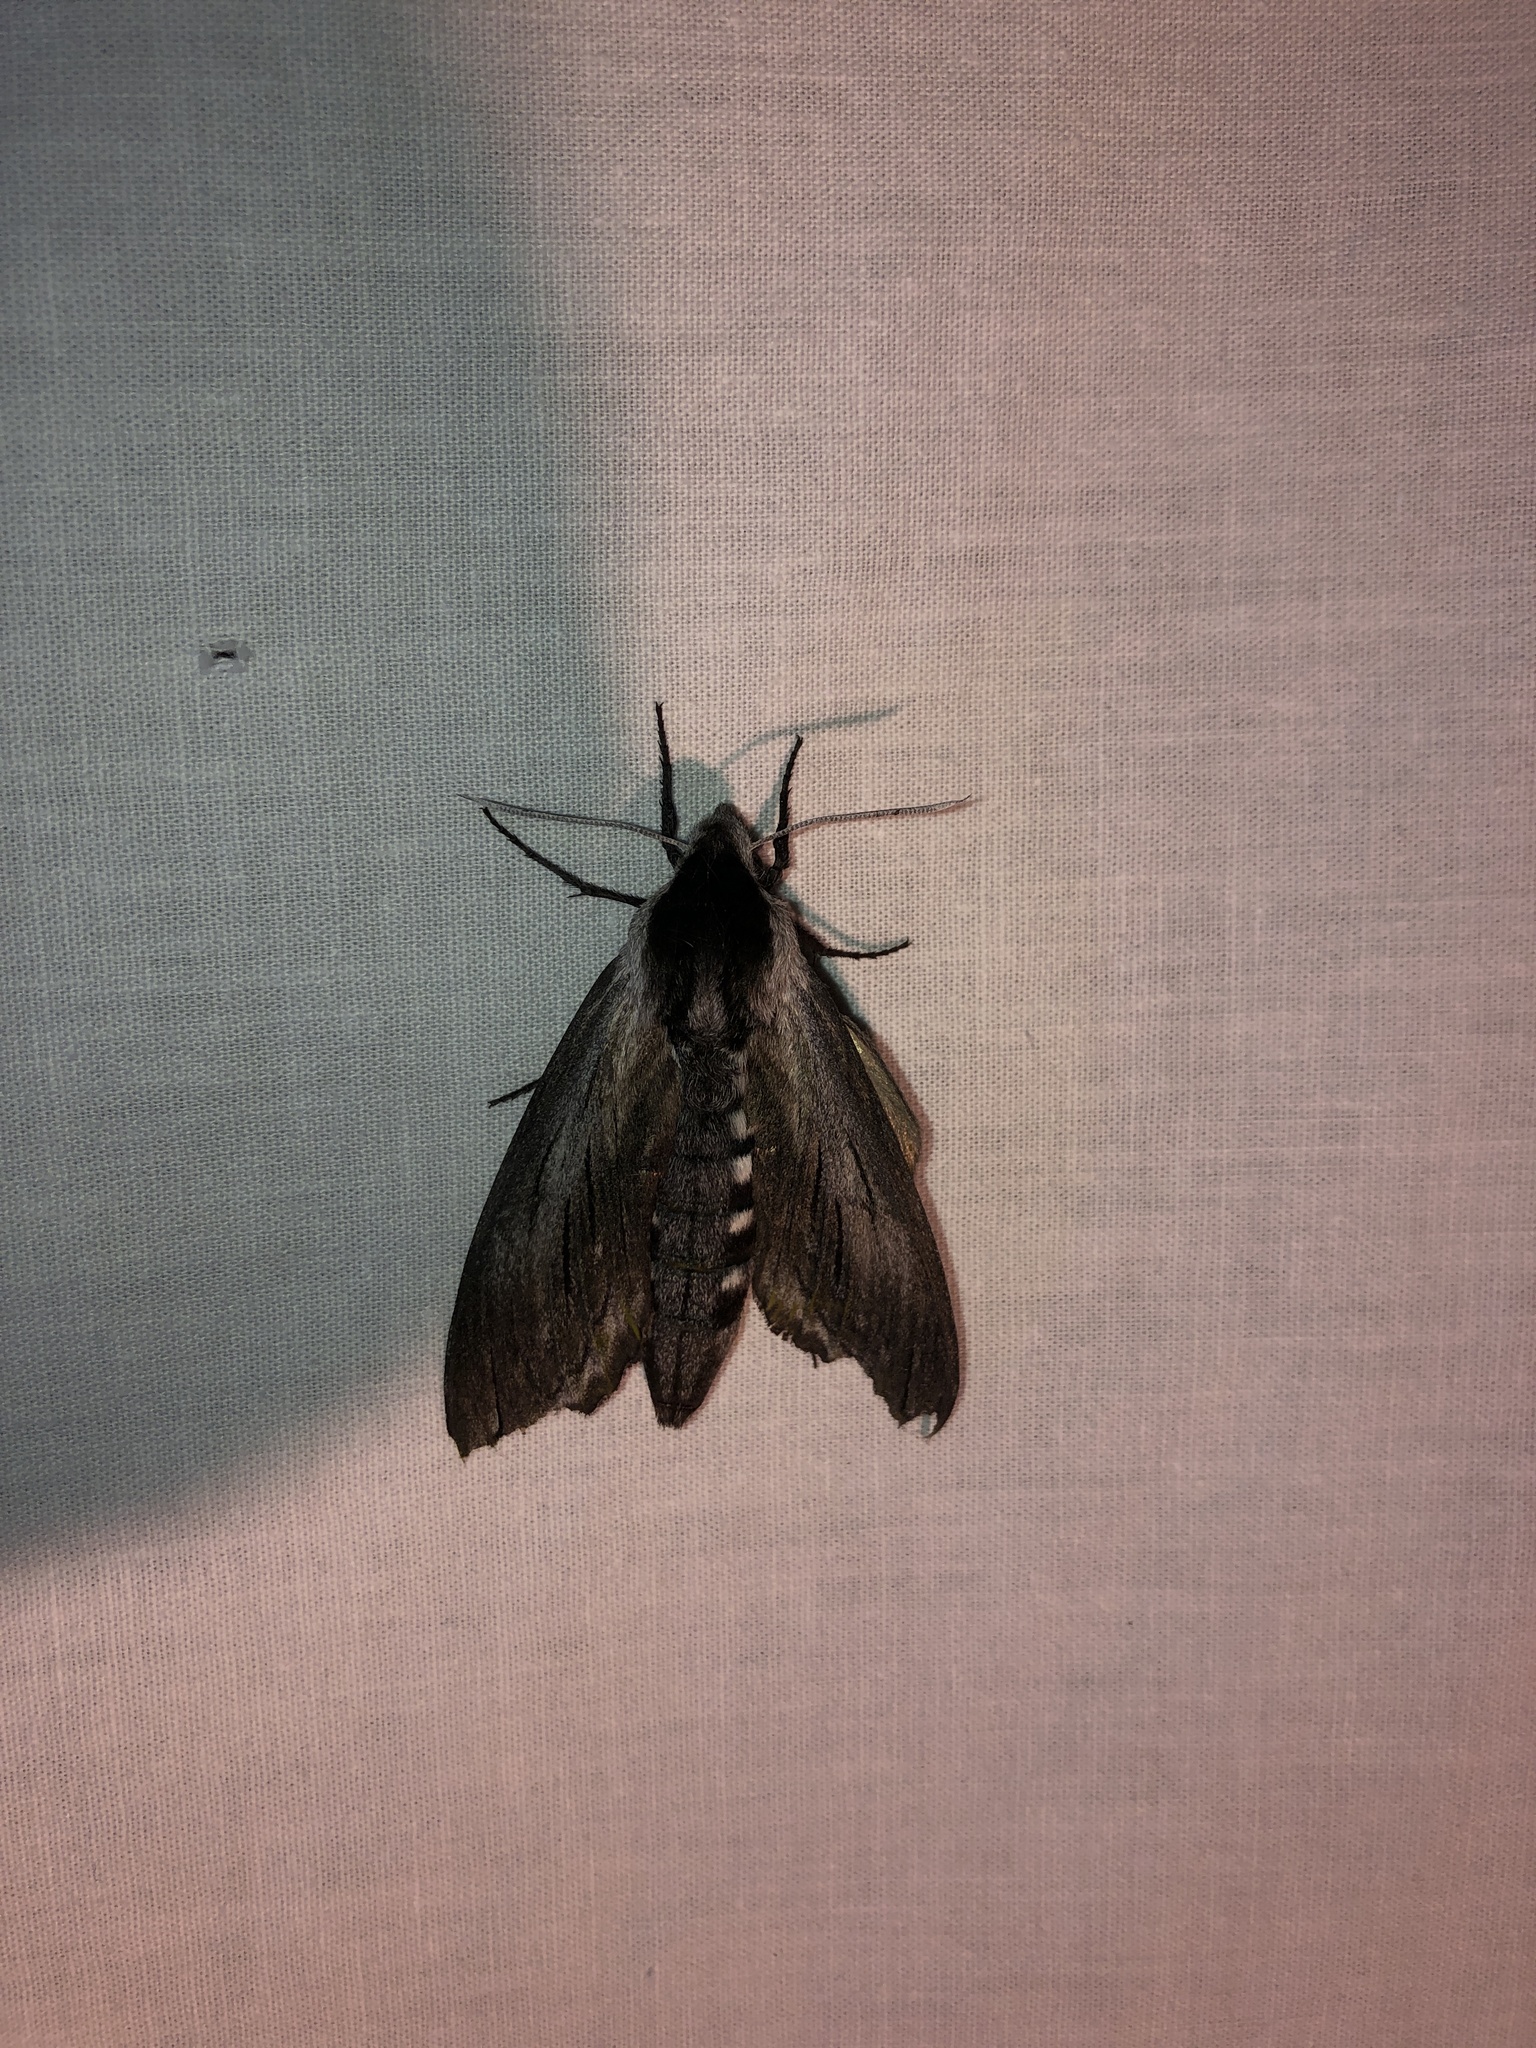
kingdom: Animalia
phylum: Arthropoda
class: Insecta
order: Lepidoptera
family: Sphingidae
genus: Sphinx
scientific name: Sphinx perelegans
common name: Elegant sphinx
